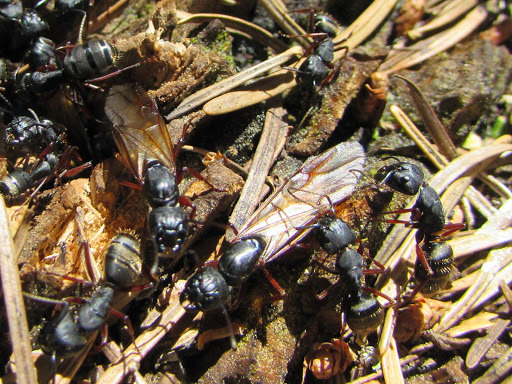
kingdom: Animalia
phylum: Arthropoda
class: Insecta
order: Hymenoptera
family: Formicidae
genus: Camponotus
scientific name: Camponotus modoc
